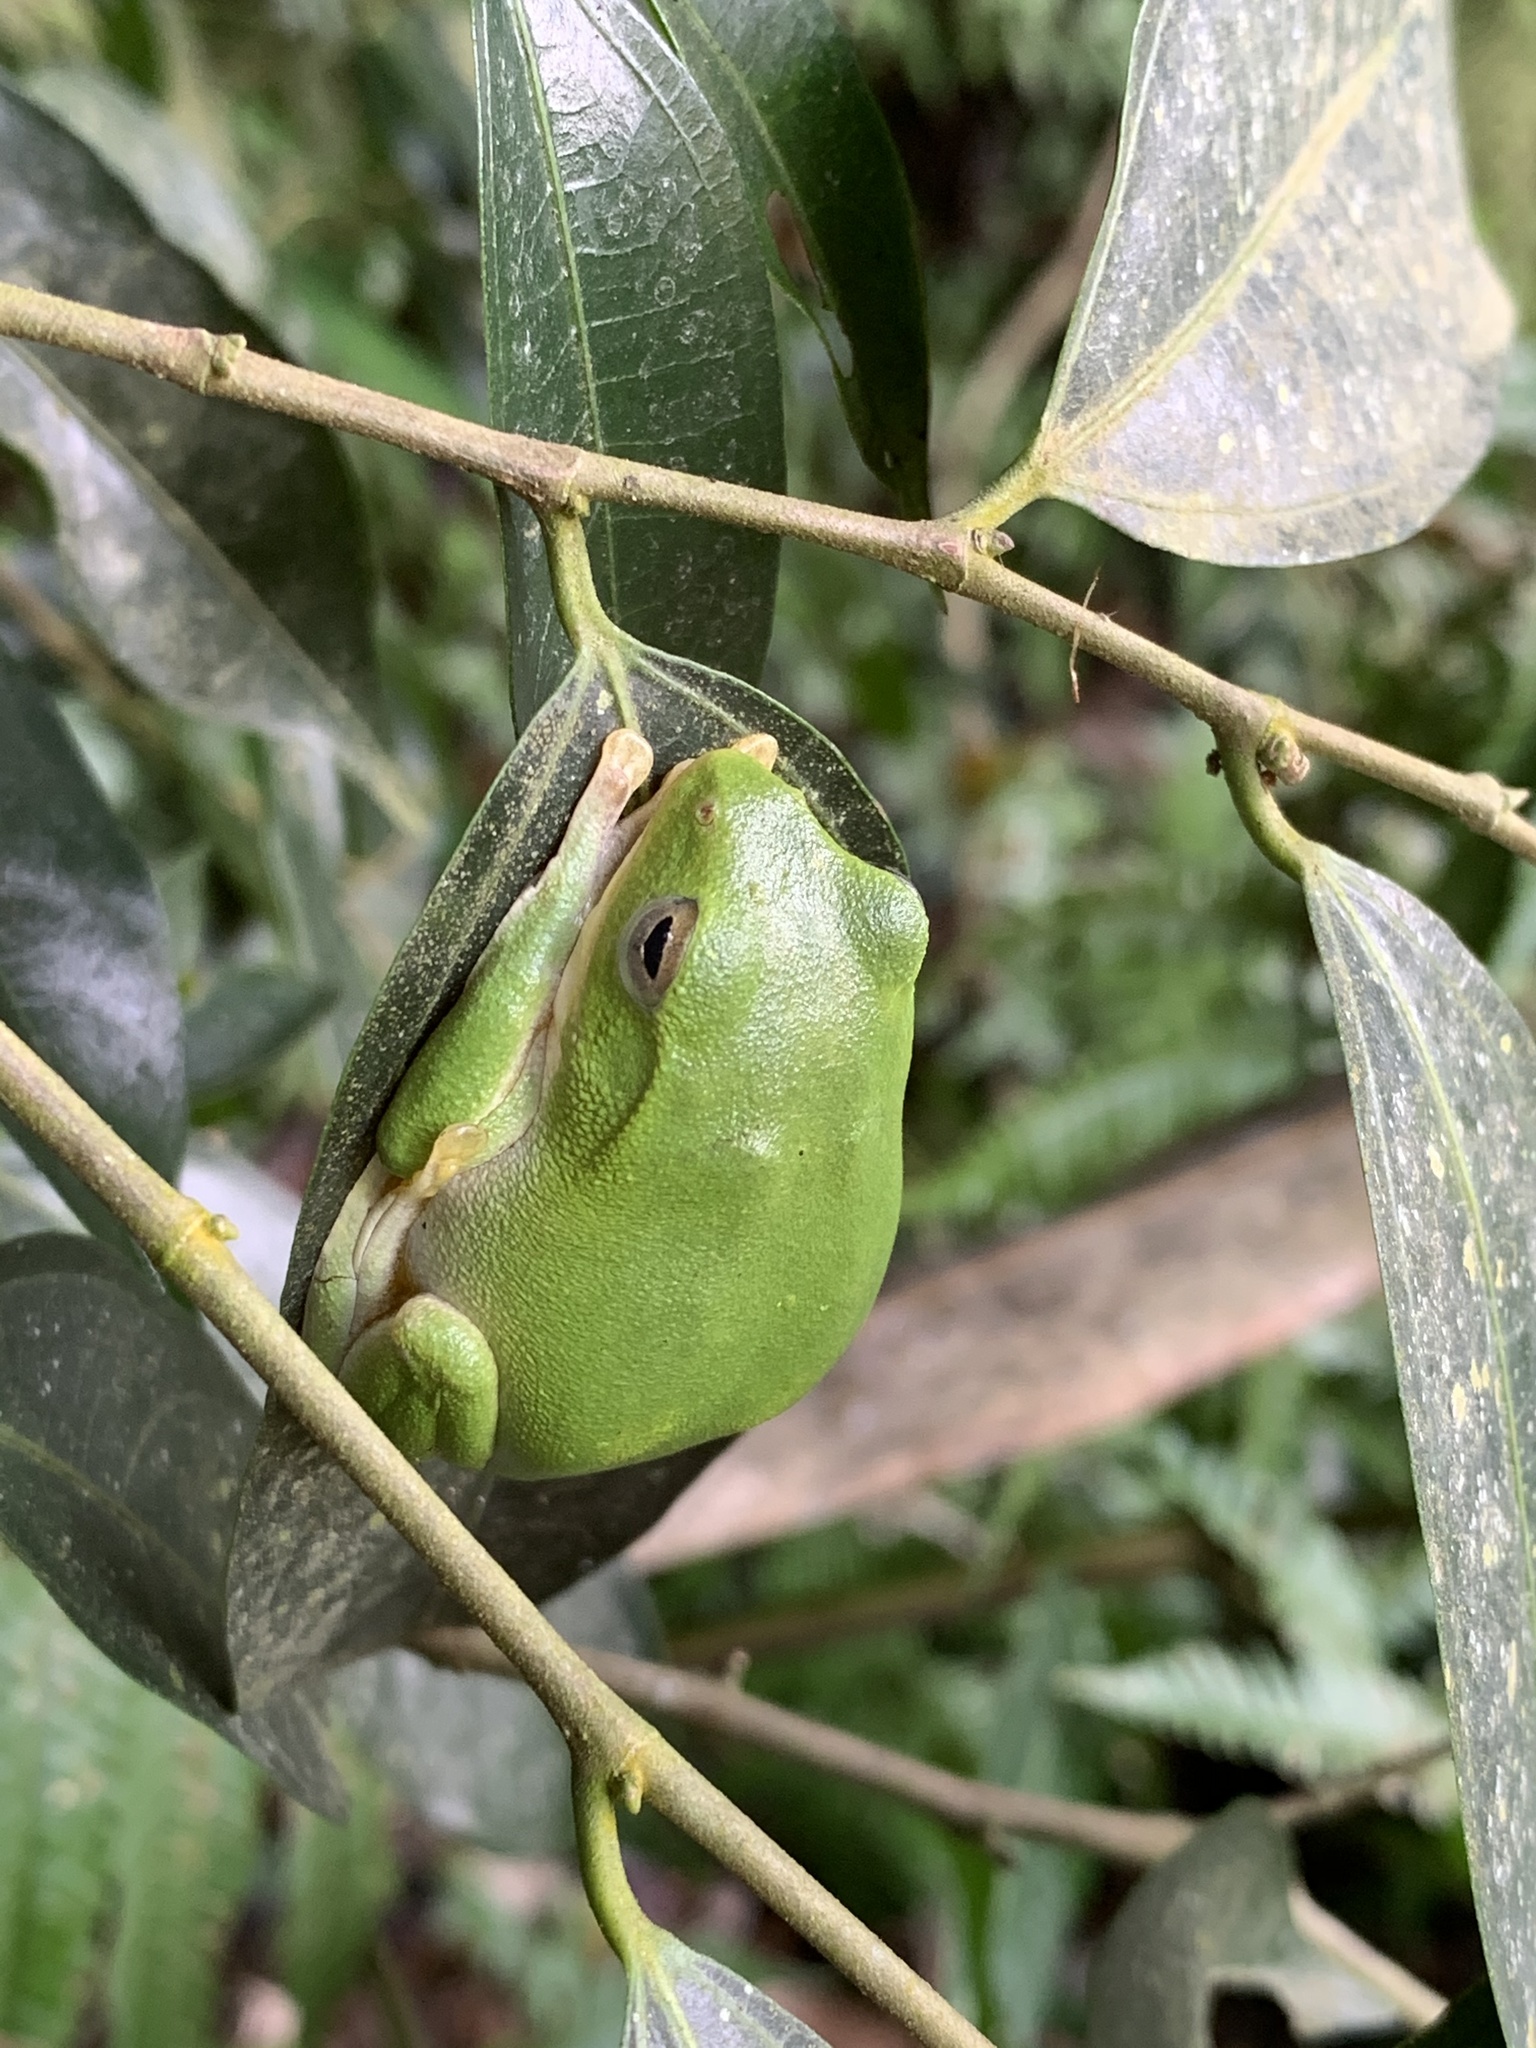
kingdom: Animalia
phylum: Chordata
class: Amphibia
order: Anura
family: Rhacophoridae
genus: Zhangixalus
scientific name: Zhangixalus taipeianus
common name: Taipei flying frog
